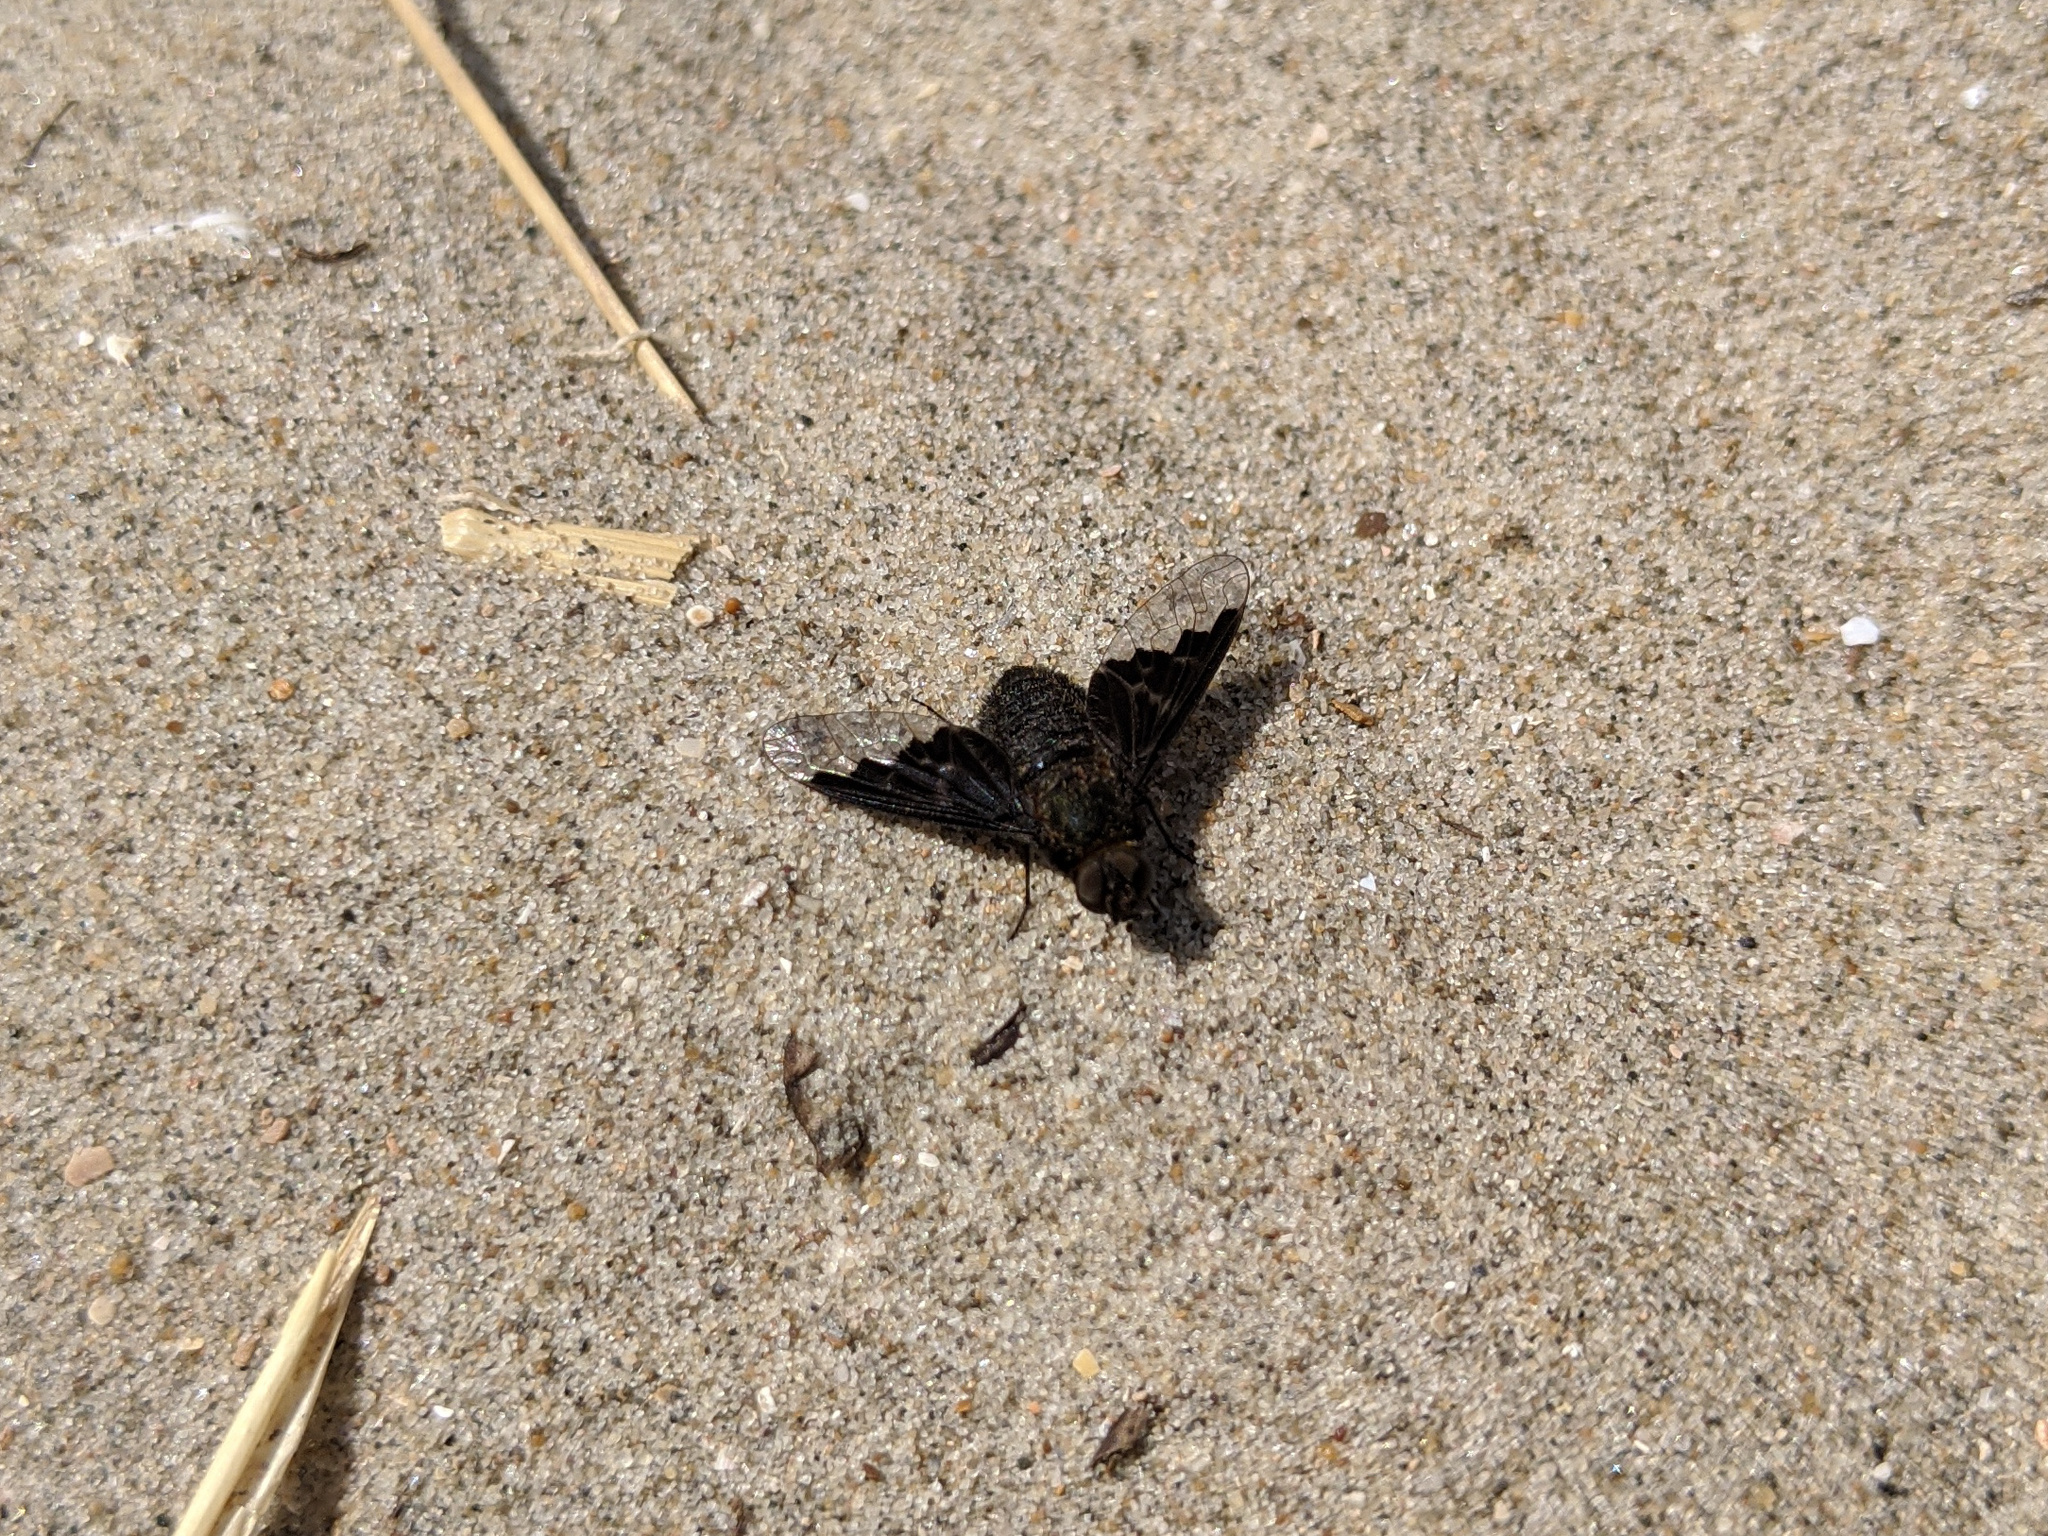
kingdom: Animalia
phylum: Arthropoda
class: Insecta
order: Diptera
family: Bombyliidae
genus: Hemipenthes
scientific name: Hemipenthes morio
